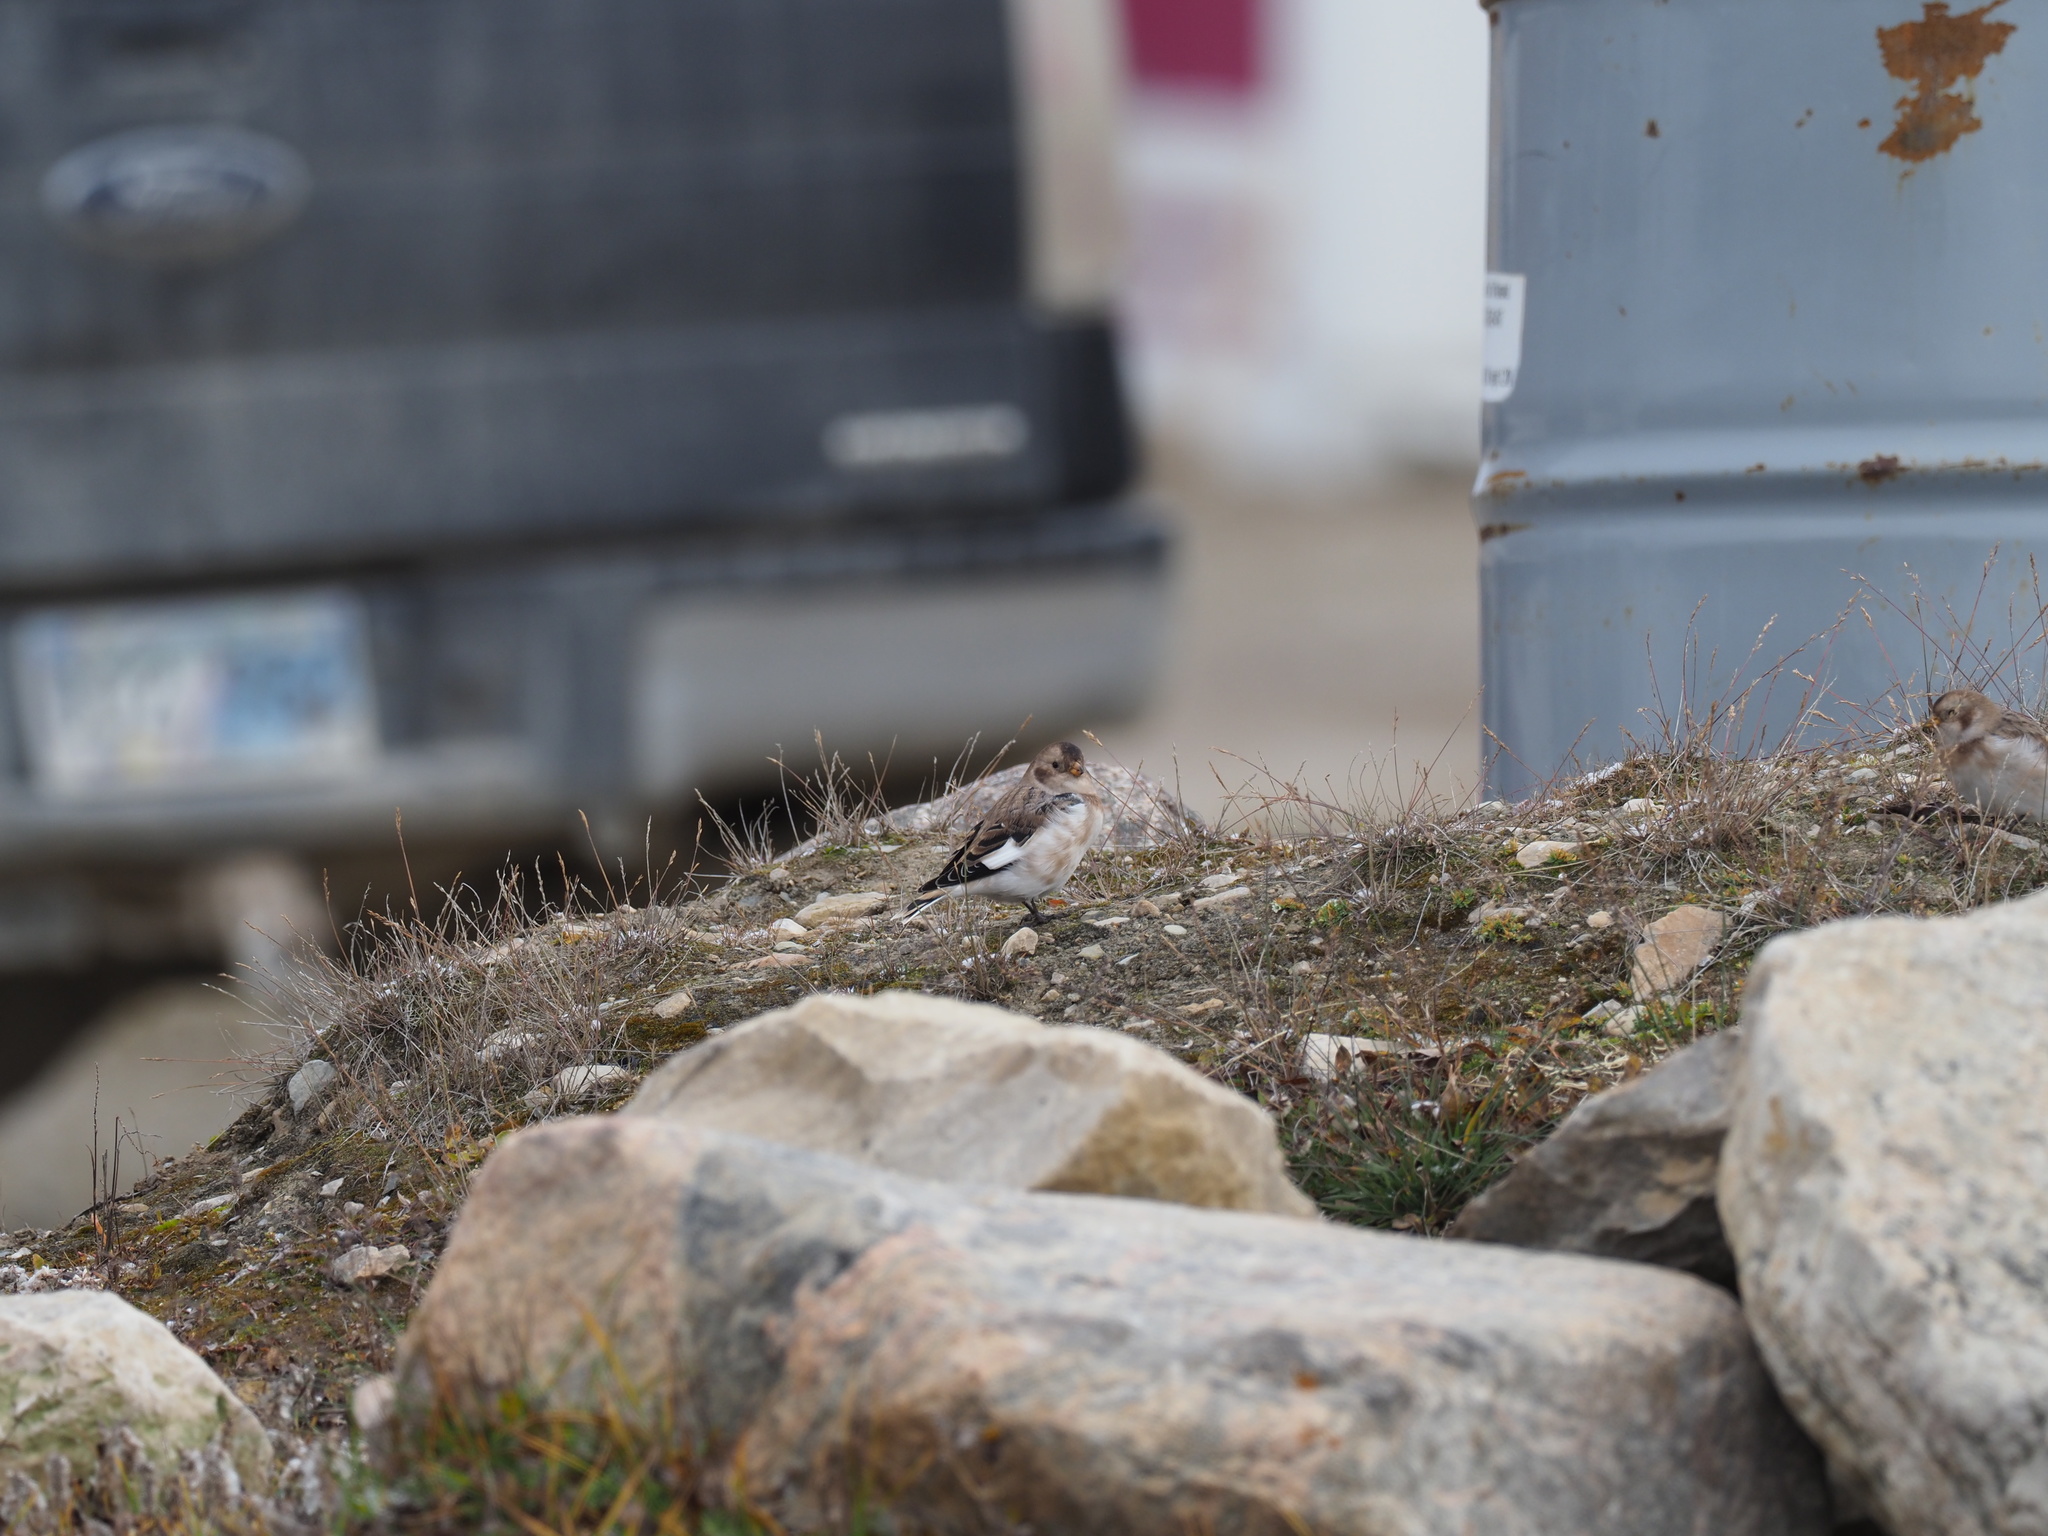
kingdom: Animalia
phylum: Chordata
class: Aves
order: Passeriformes
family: Calcariidae
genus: Plectrophenax
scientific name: Plectrophenax nivalis
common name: Snow bunting
